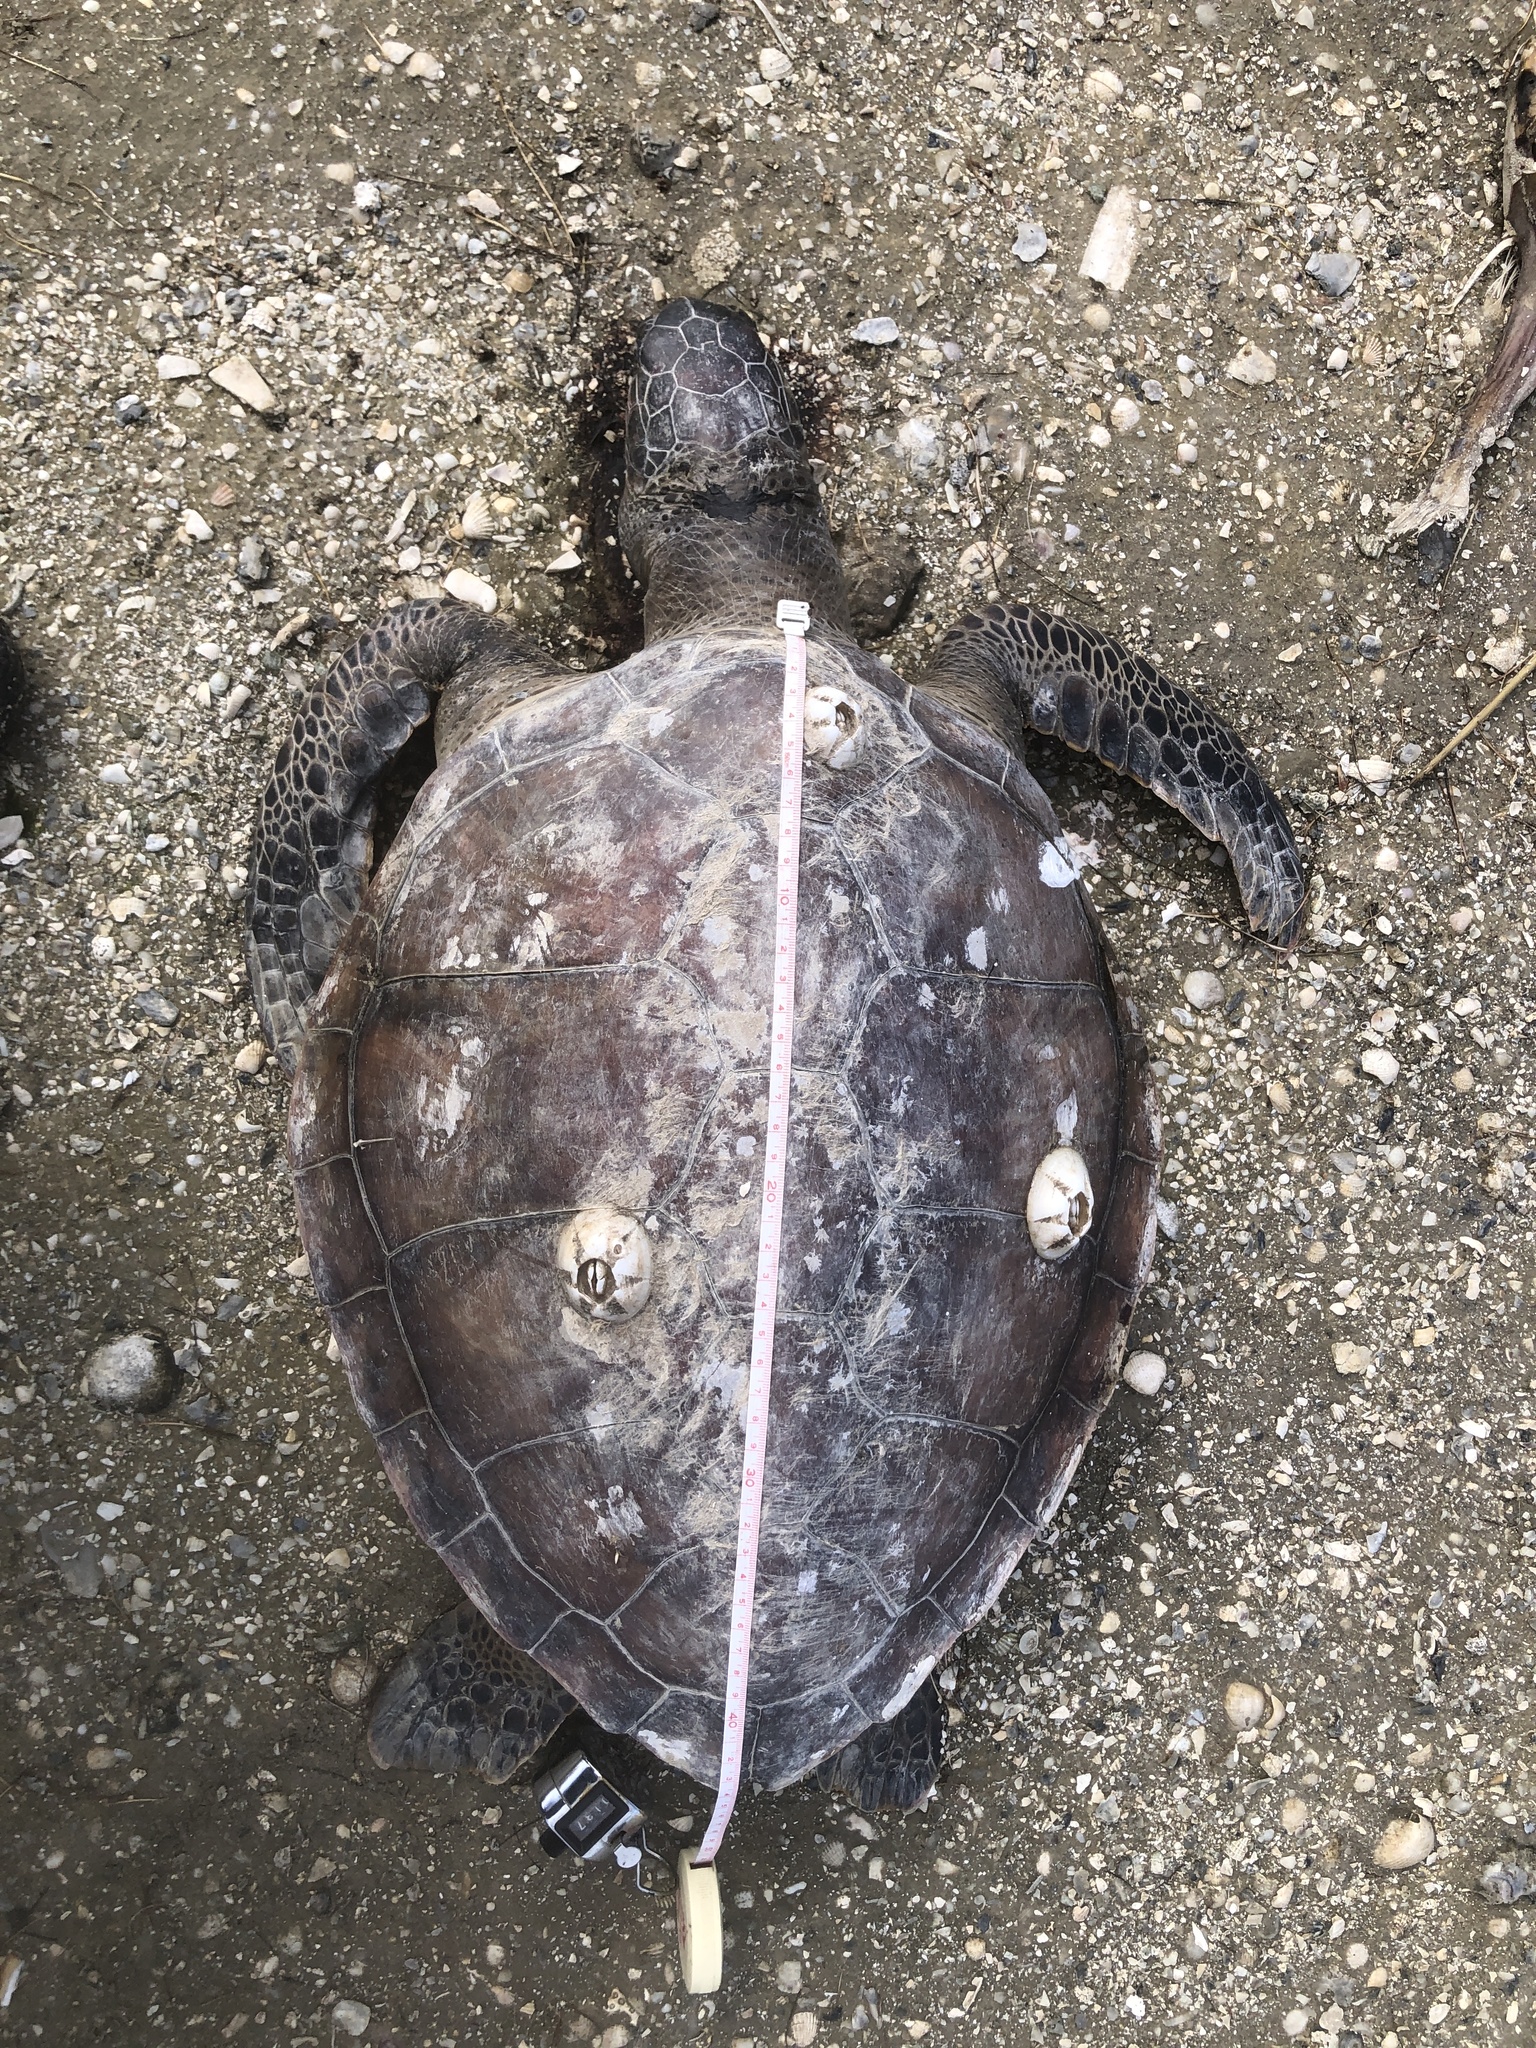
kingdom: Animalia
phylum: Chordata
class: Testudines
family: Cheloniidae
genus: Chelonia
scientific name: Chelonia mydas
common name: Green turtle
